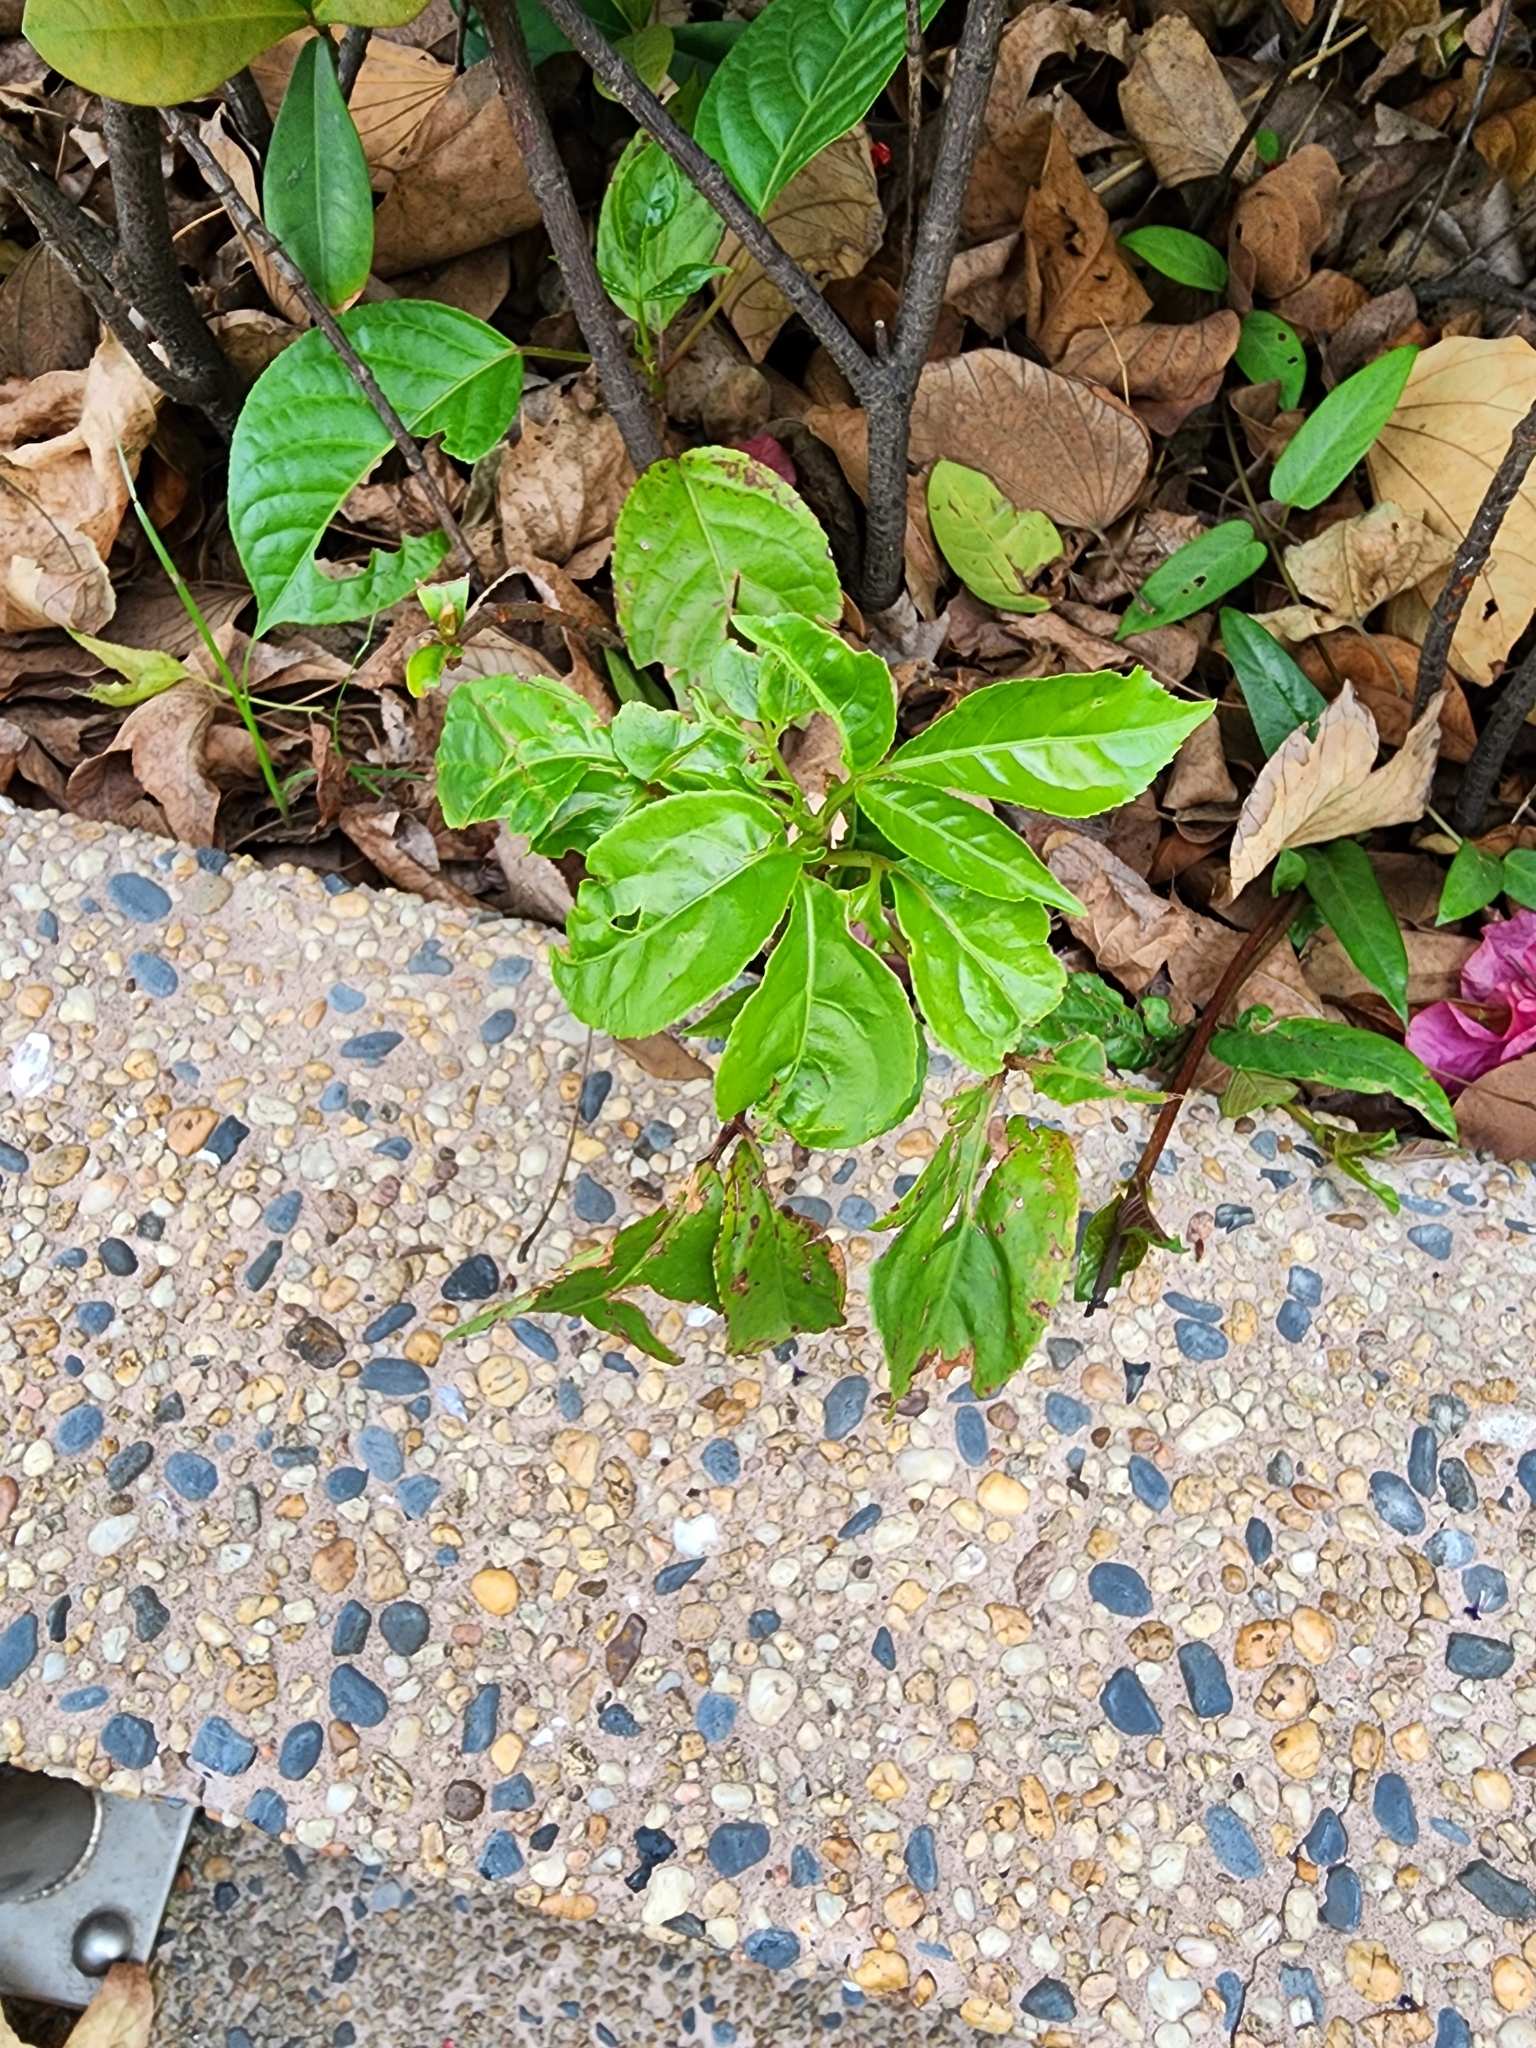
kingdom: Plantae
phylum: Tracheophyta
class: Magnoliopsida
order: Malpighiales
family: Phyllanthaceae
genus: Bischofia
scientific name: Bischofia javanica
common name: Javanese bishopwood
